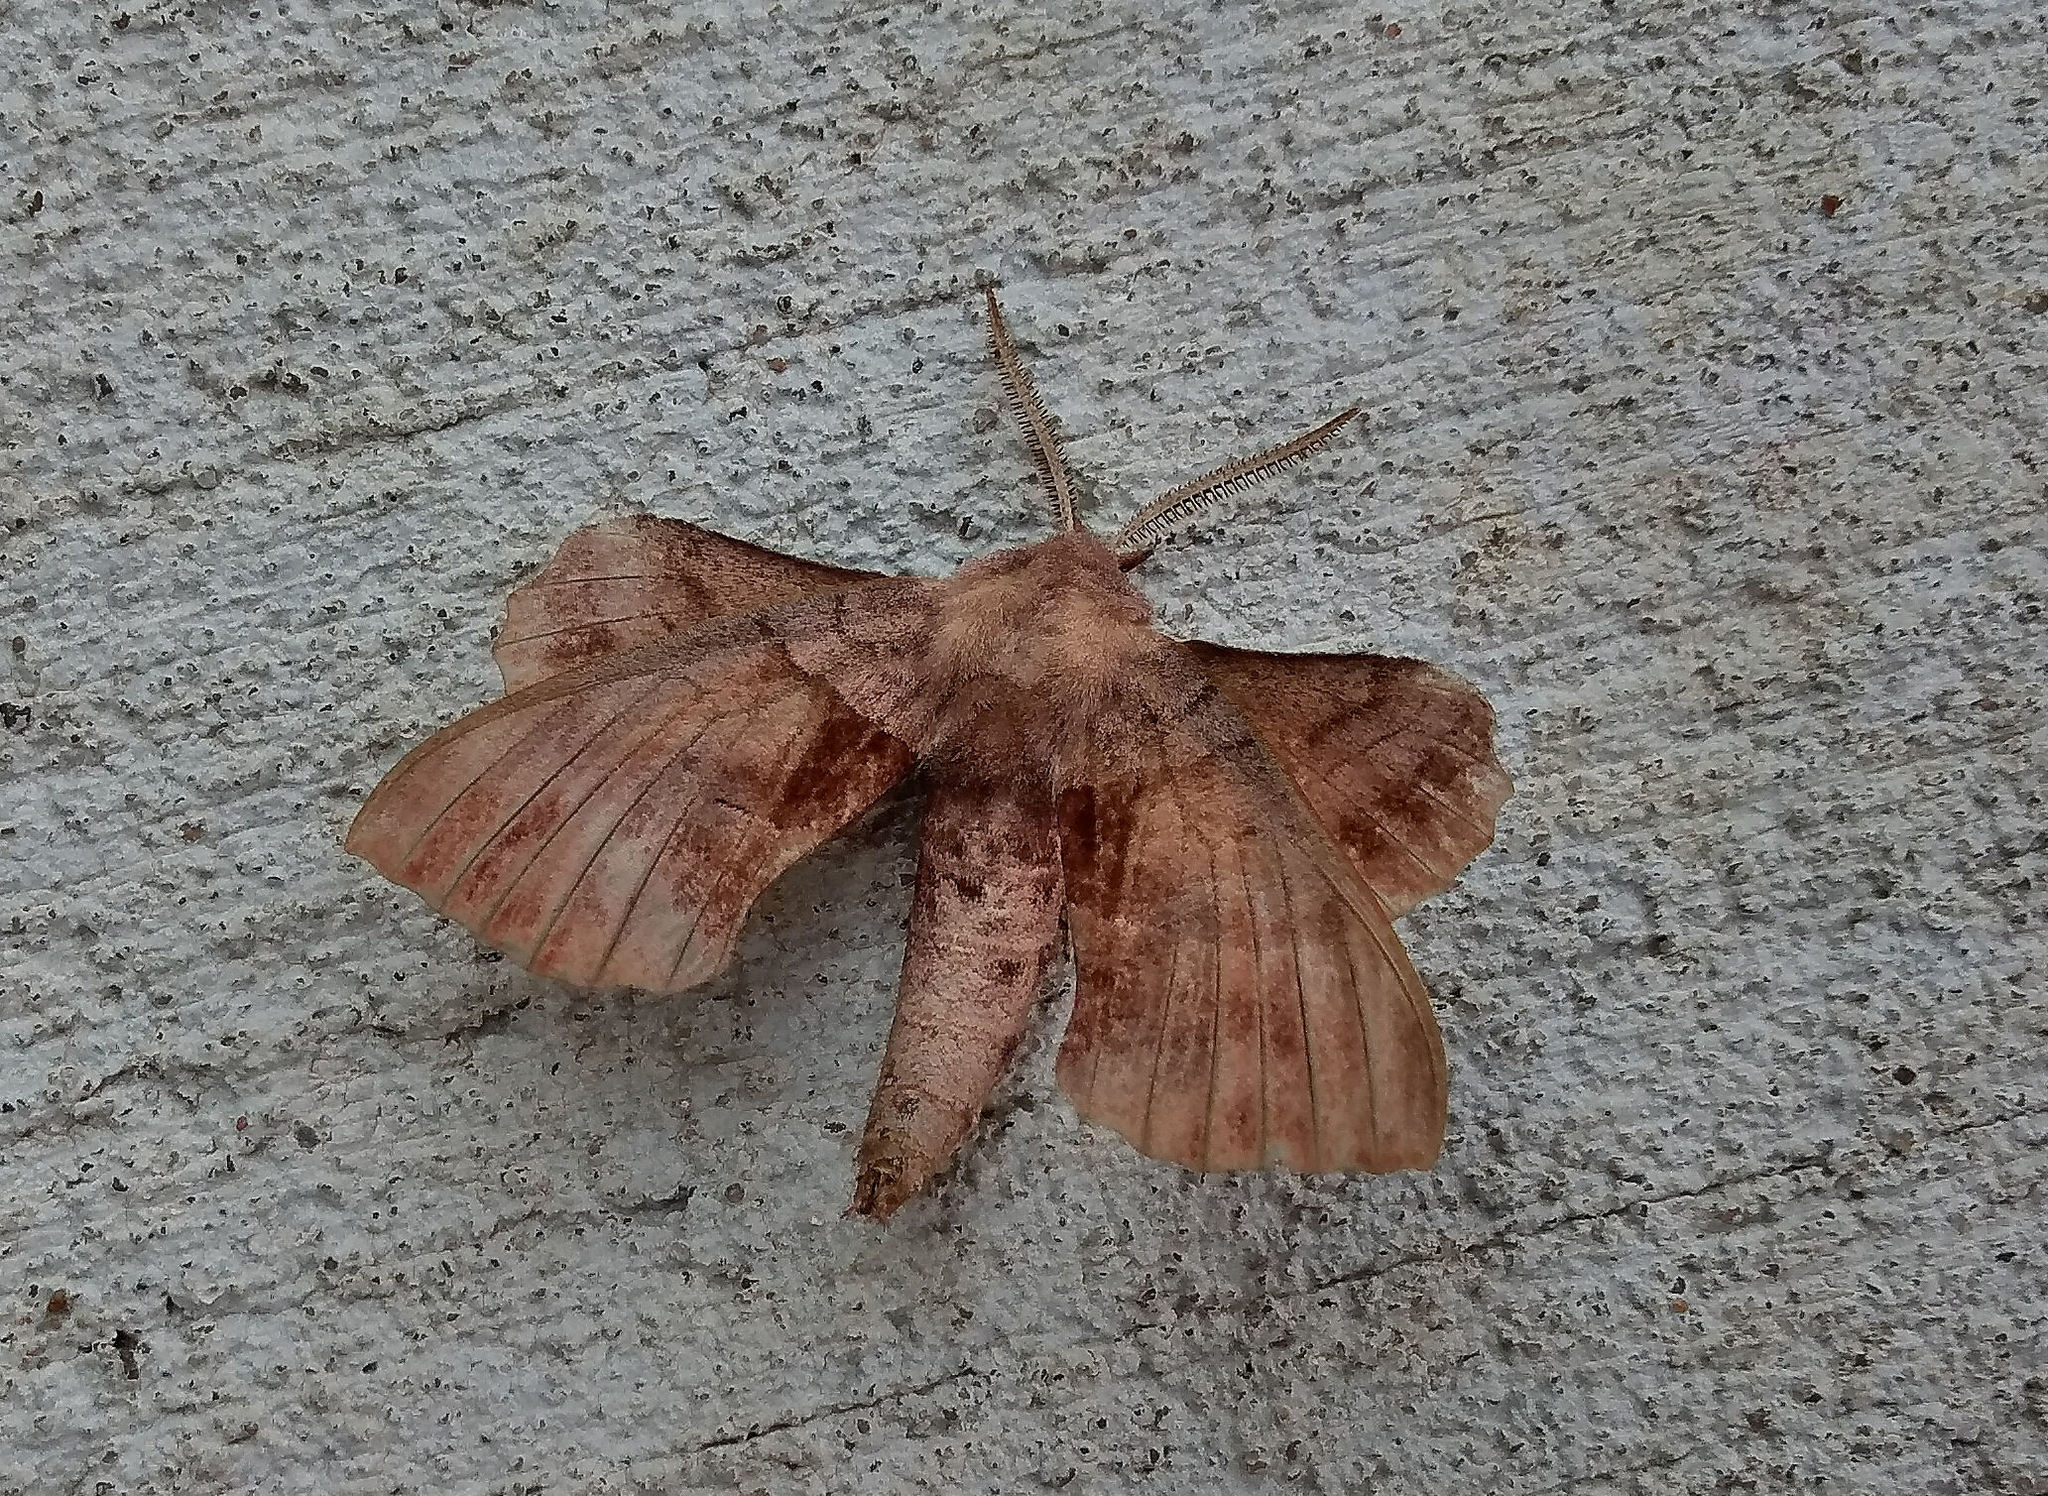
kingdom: Animalia
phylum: Arthropoda
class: Insecta
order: Lepidoptera
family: Sphingidae
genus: Amorpha
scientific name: Amorpha juglandis
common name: Walnut sphinx
